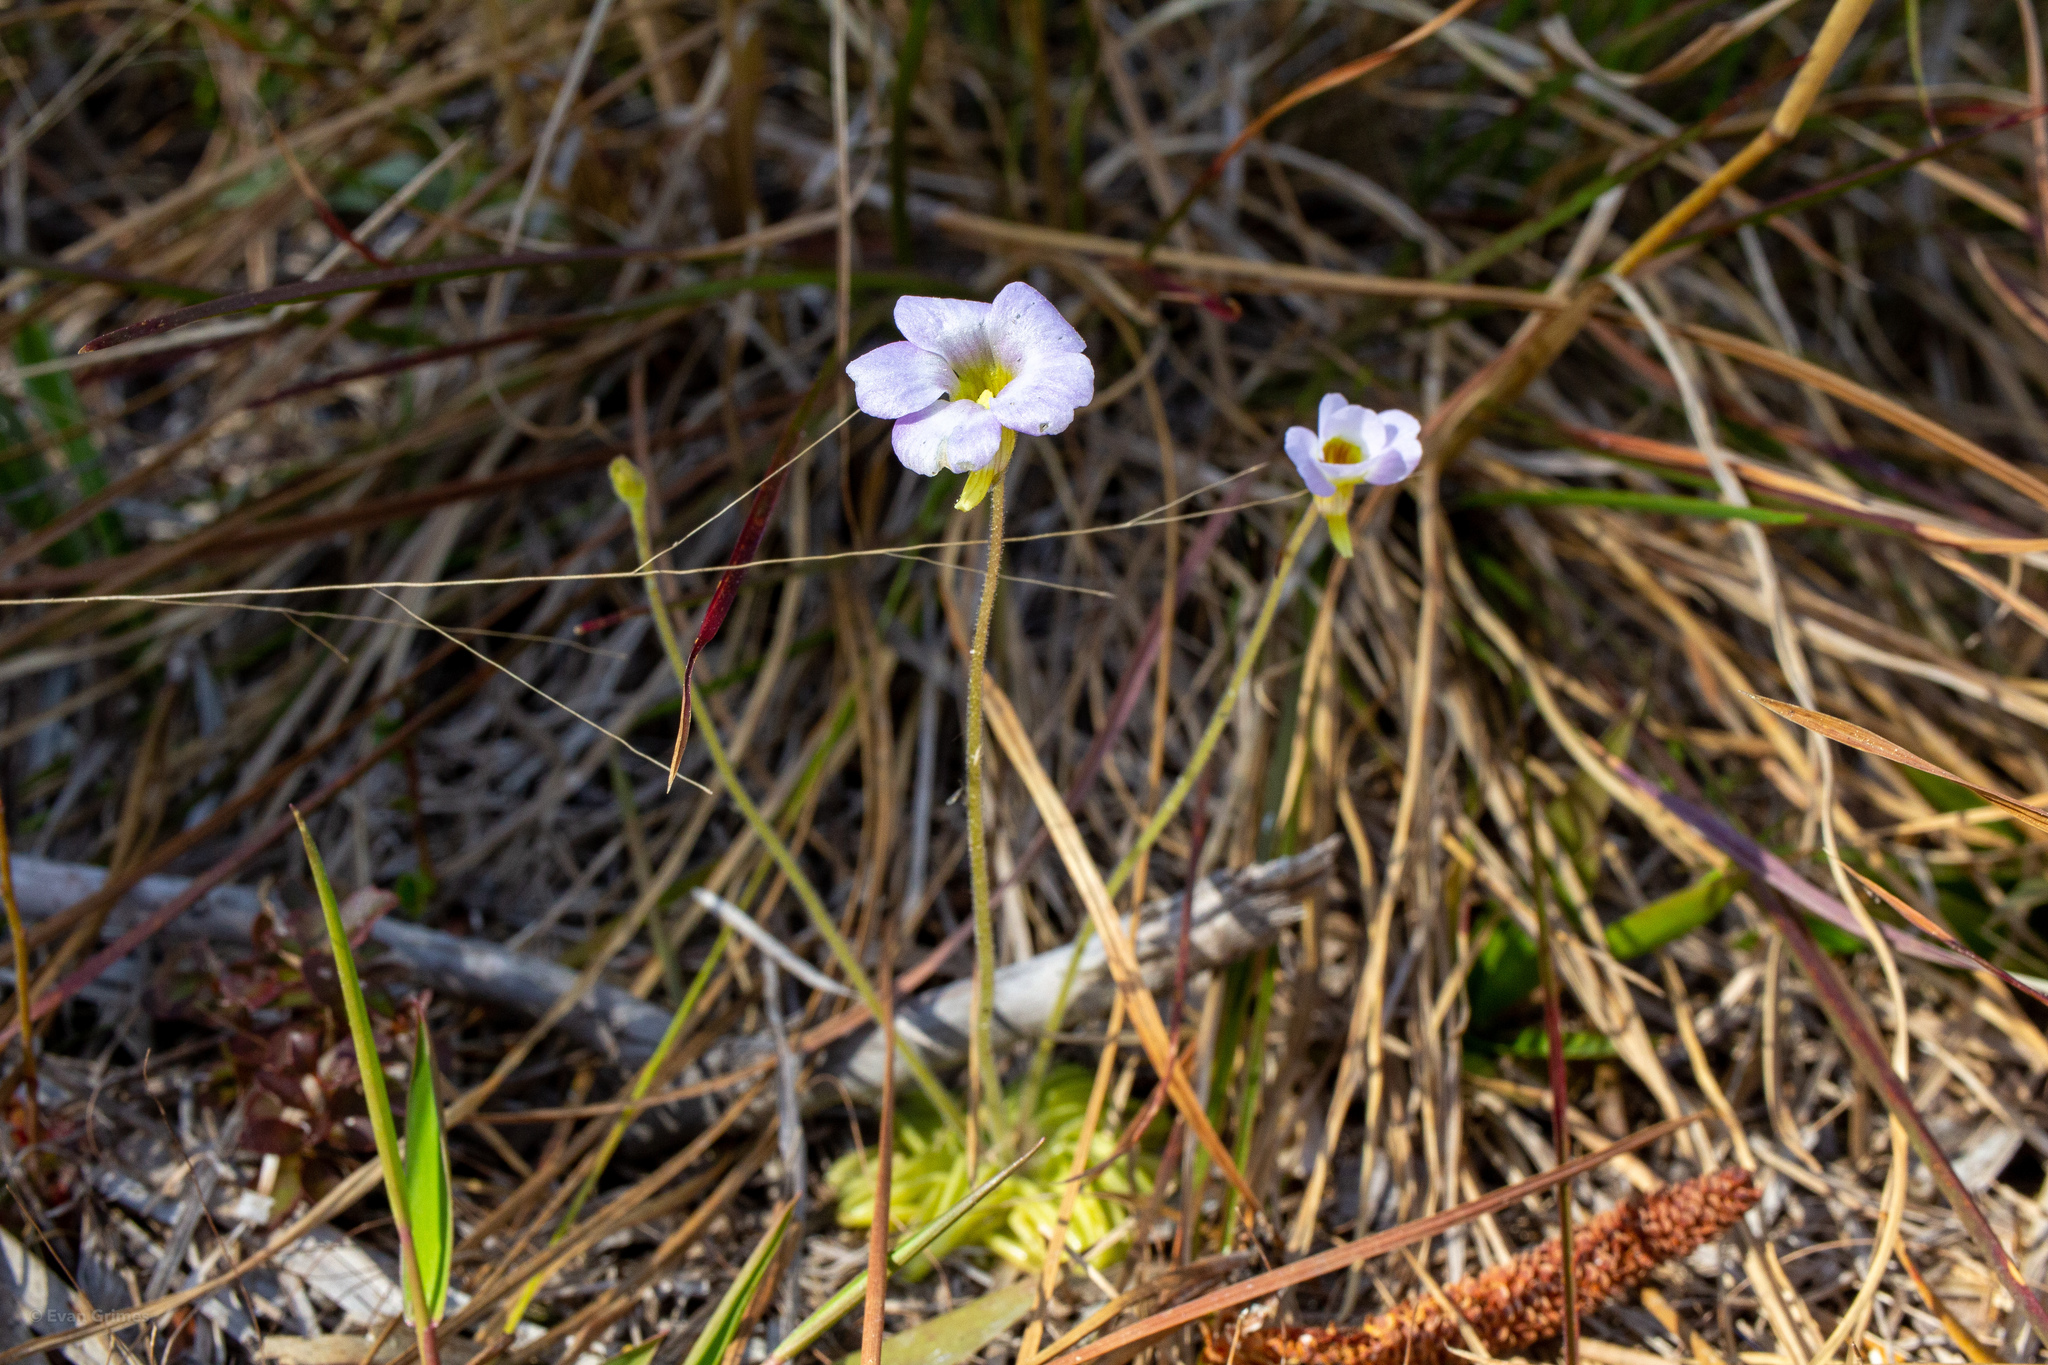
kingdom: Plantae
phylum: Tracheophyta
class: Magnoliopsida
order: Lamiales
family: Lentibulariaceae
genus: Pinguicula
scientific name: Pinguicula pumila
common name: Small butterwort
